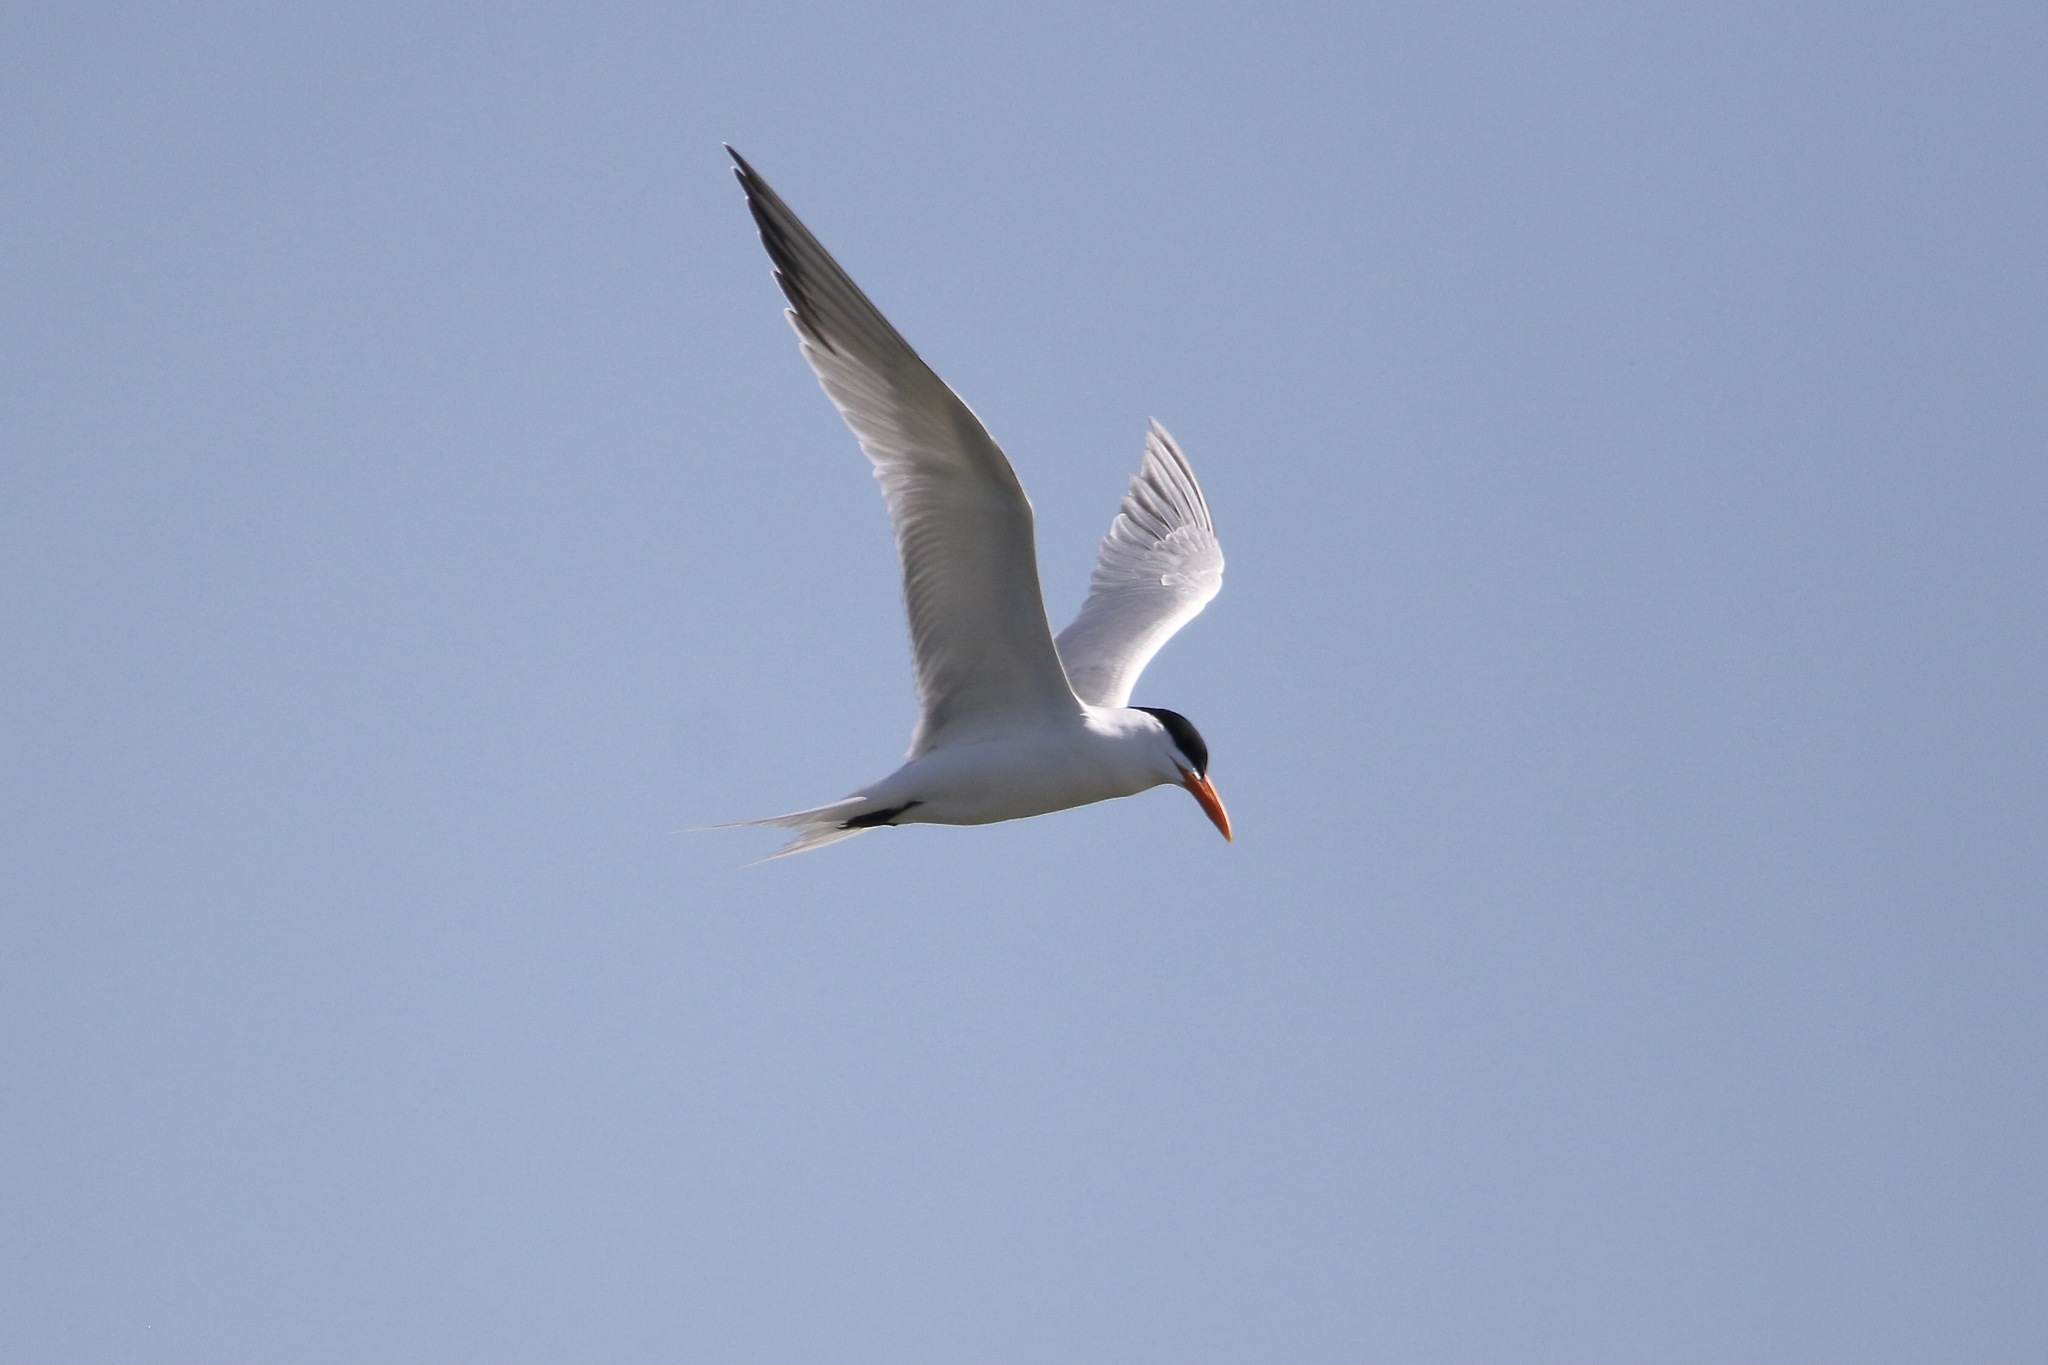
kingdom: Animalia
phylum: Chordata
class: Aves
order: Charadriiformes
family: Laridae
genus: Thalasseus
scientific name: Thalasseus maximus
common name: Royal tern
